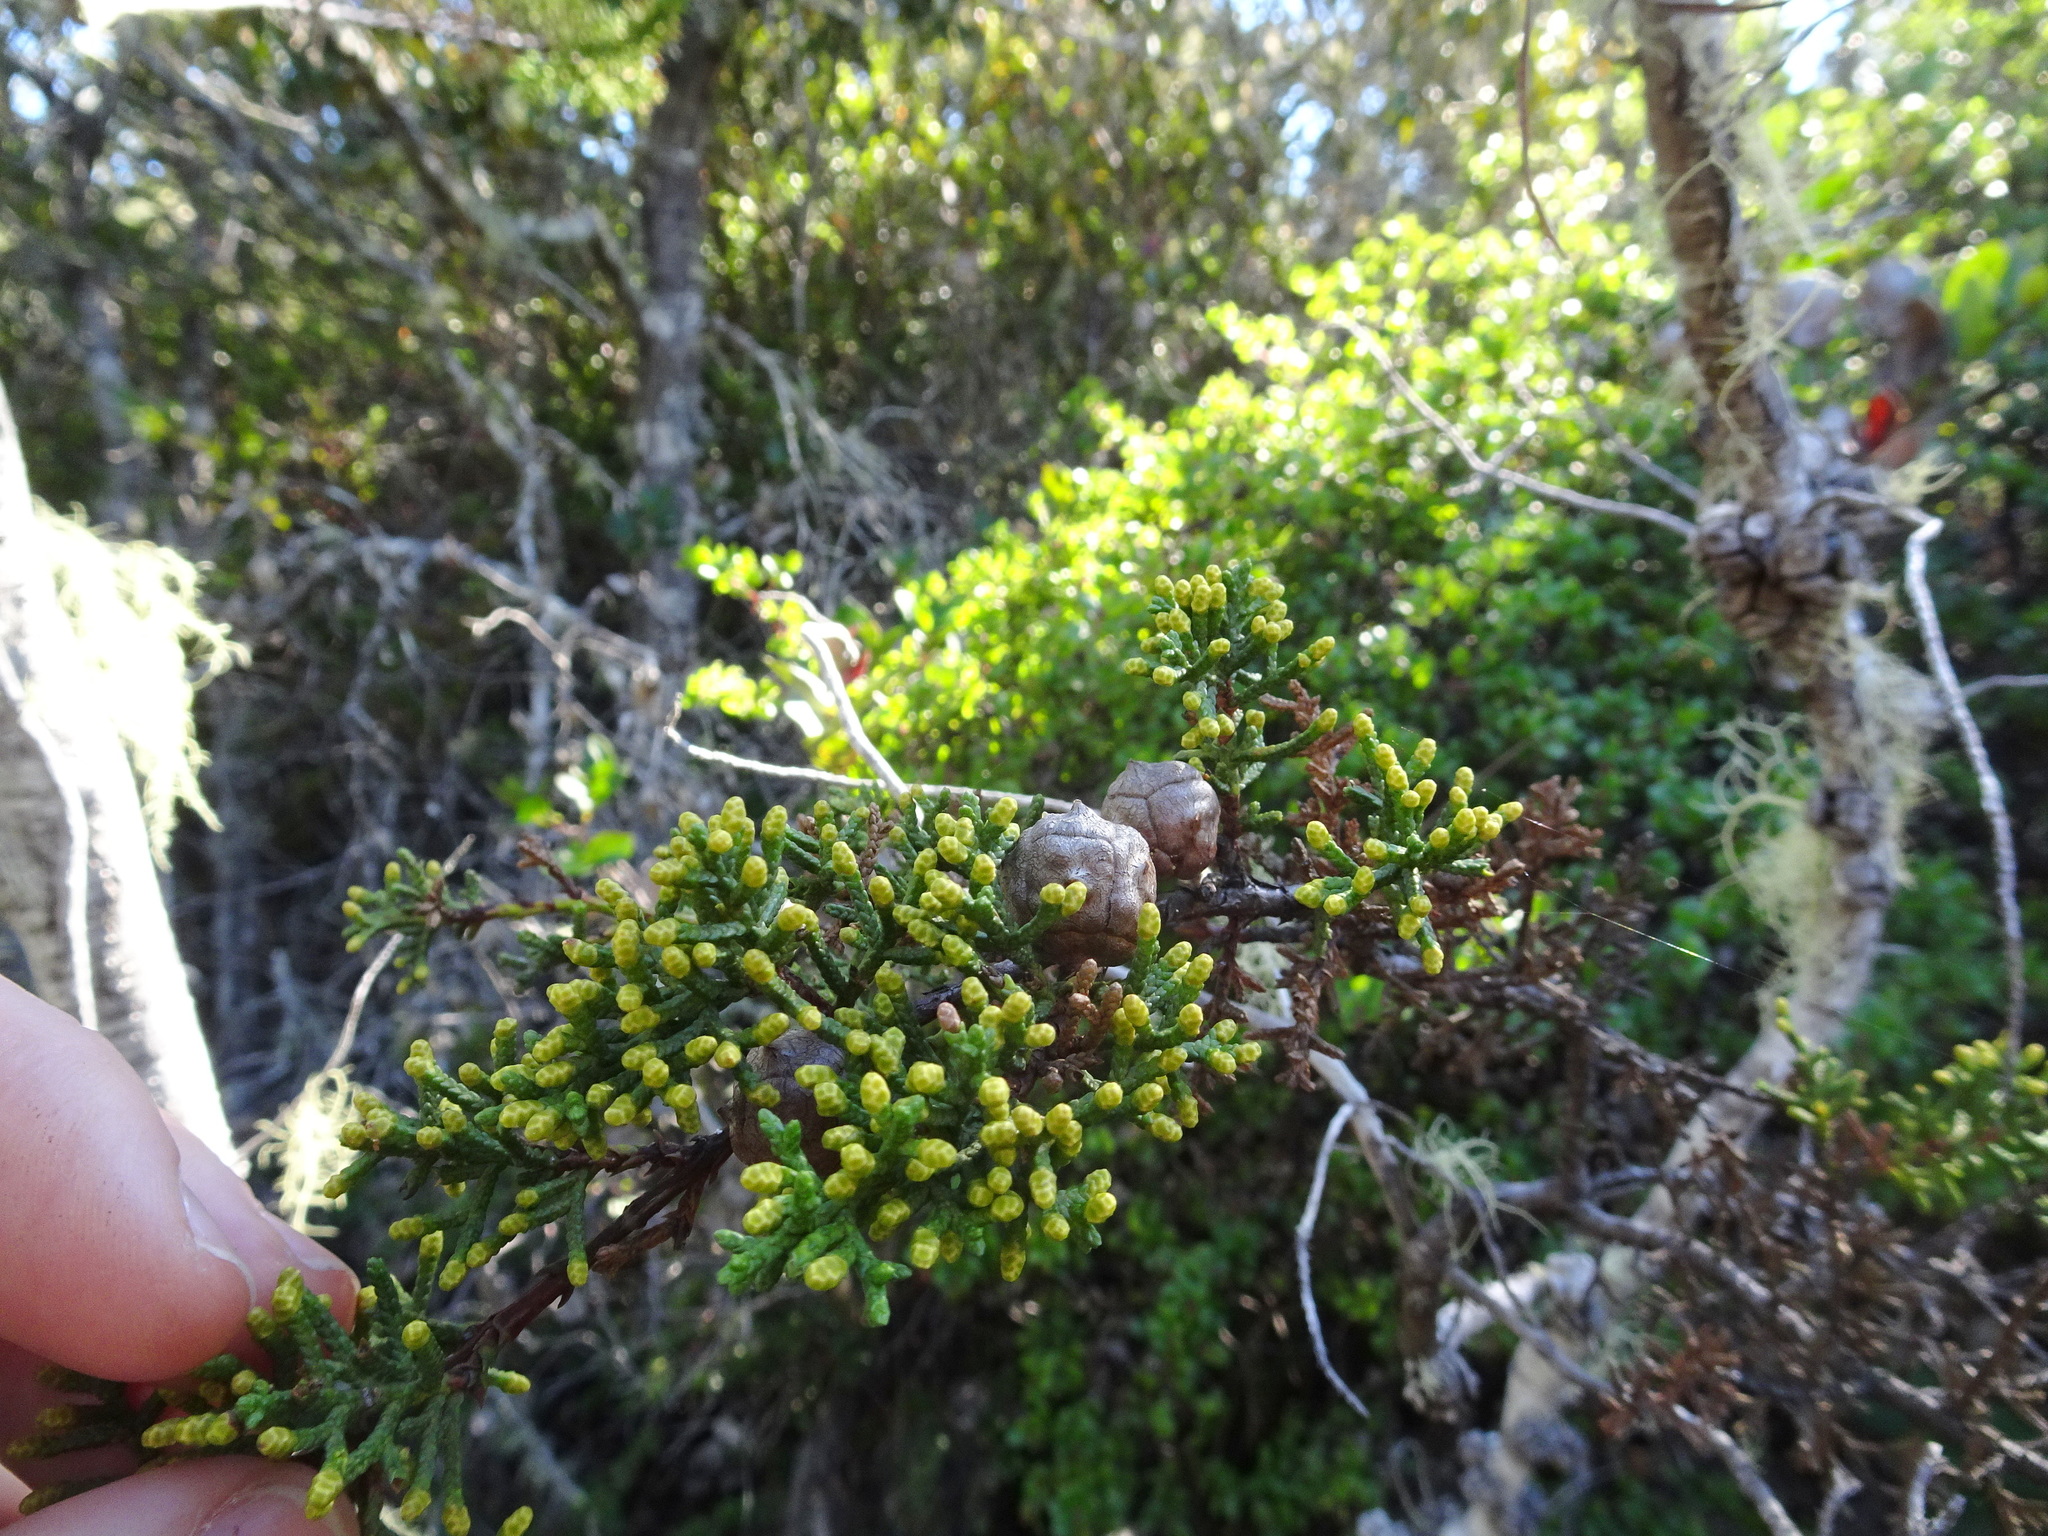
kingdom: Plantae
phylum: Tracheophyta
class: Pinopsida
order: Pinales
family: Cupressaceae
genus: Cupressus
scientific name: Cupressus goveniana
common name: Gowen cypress
